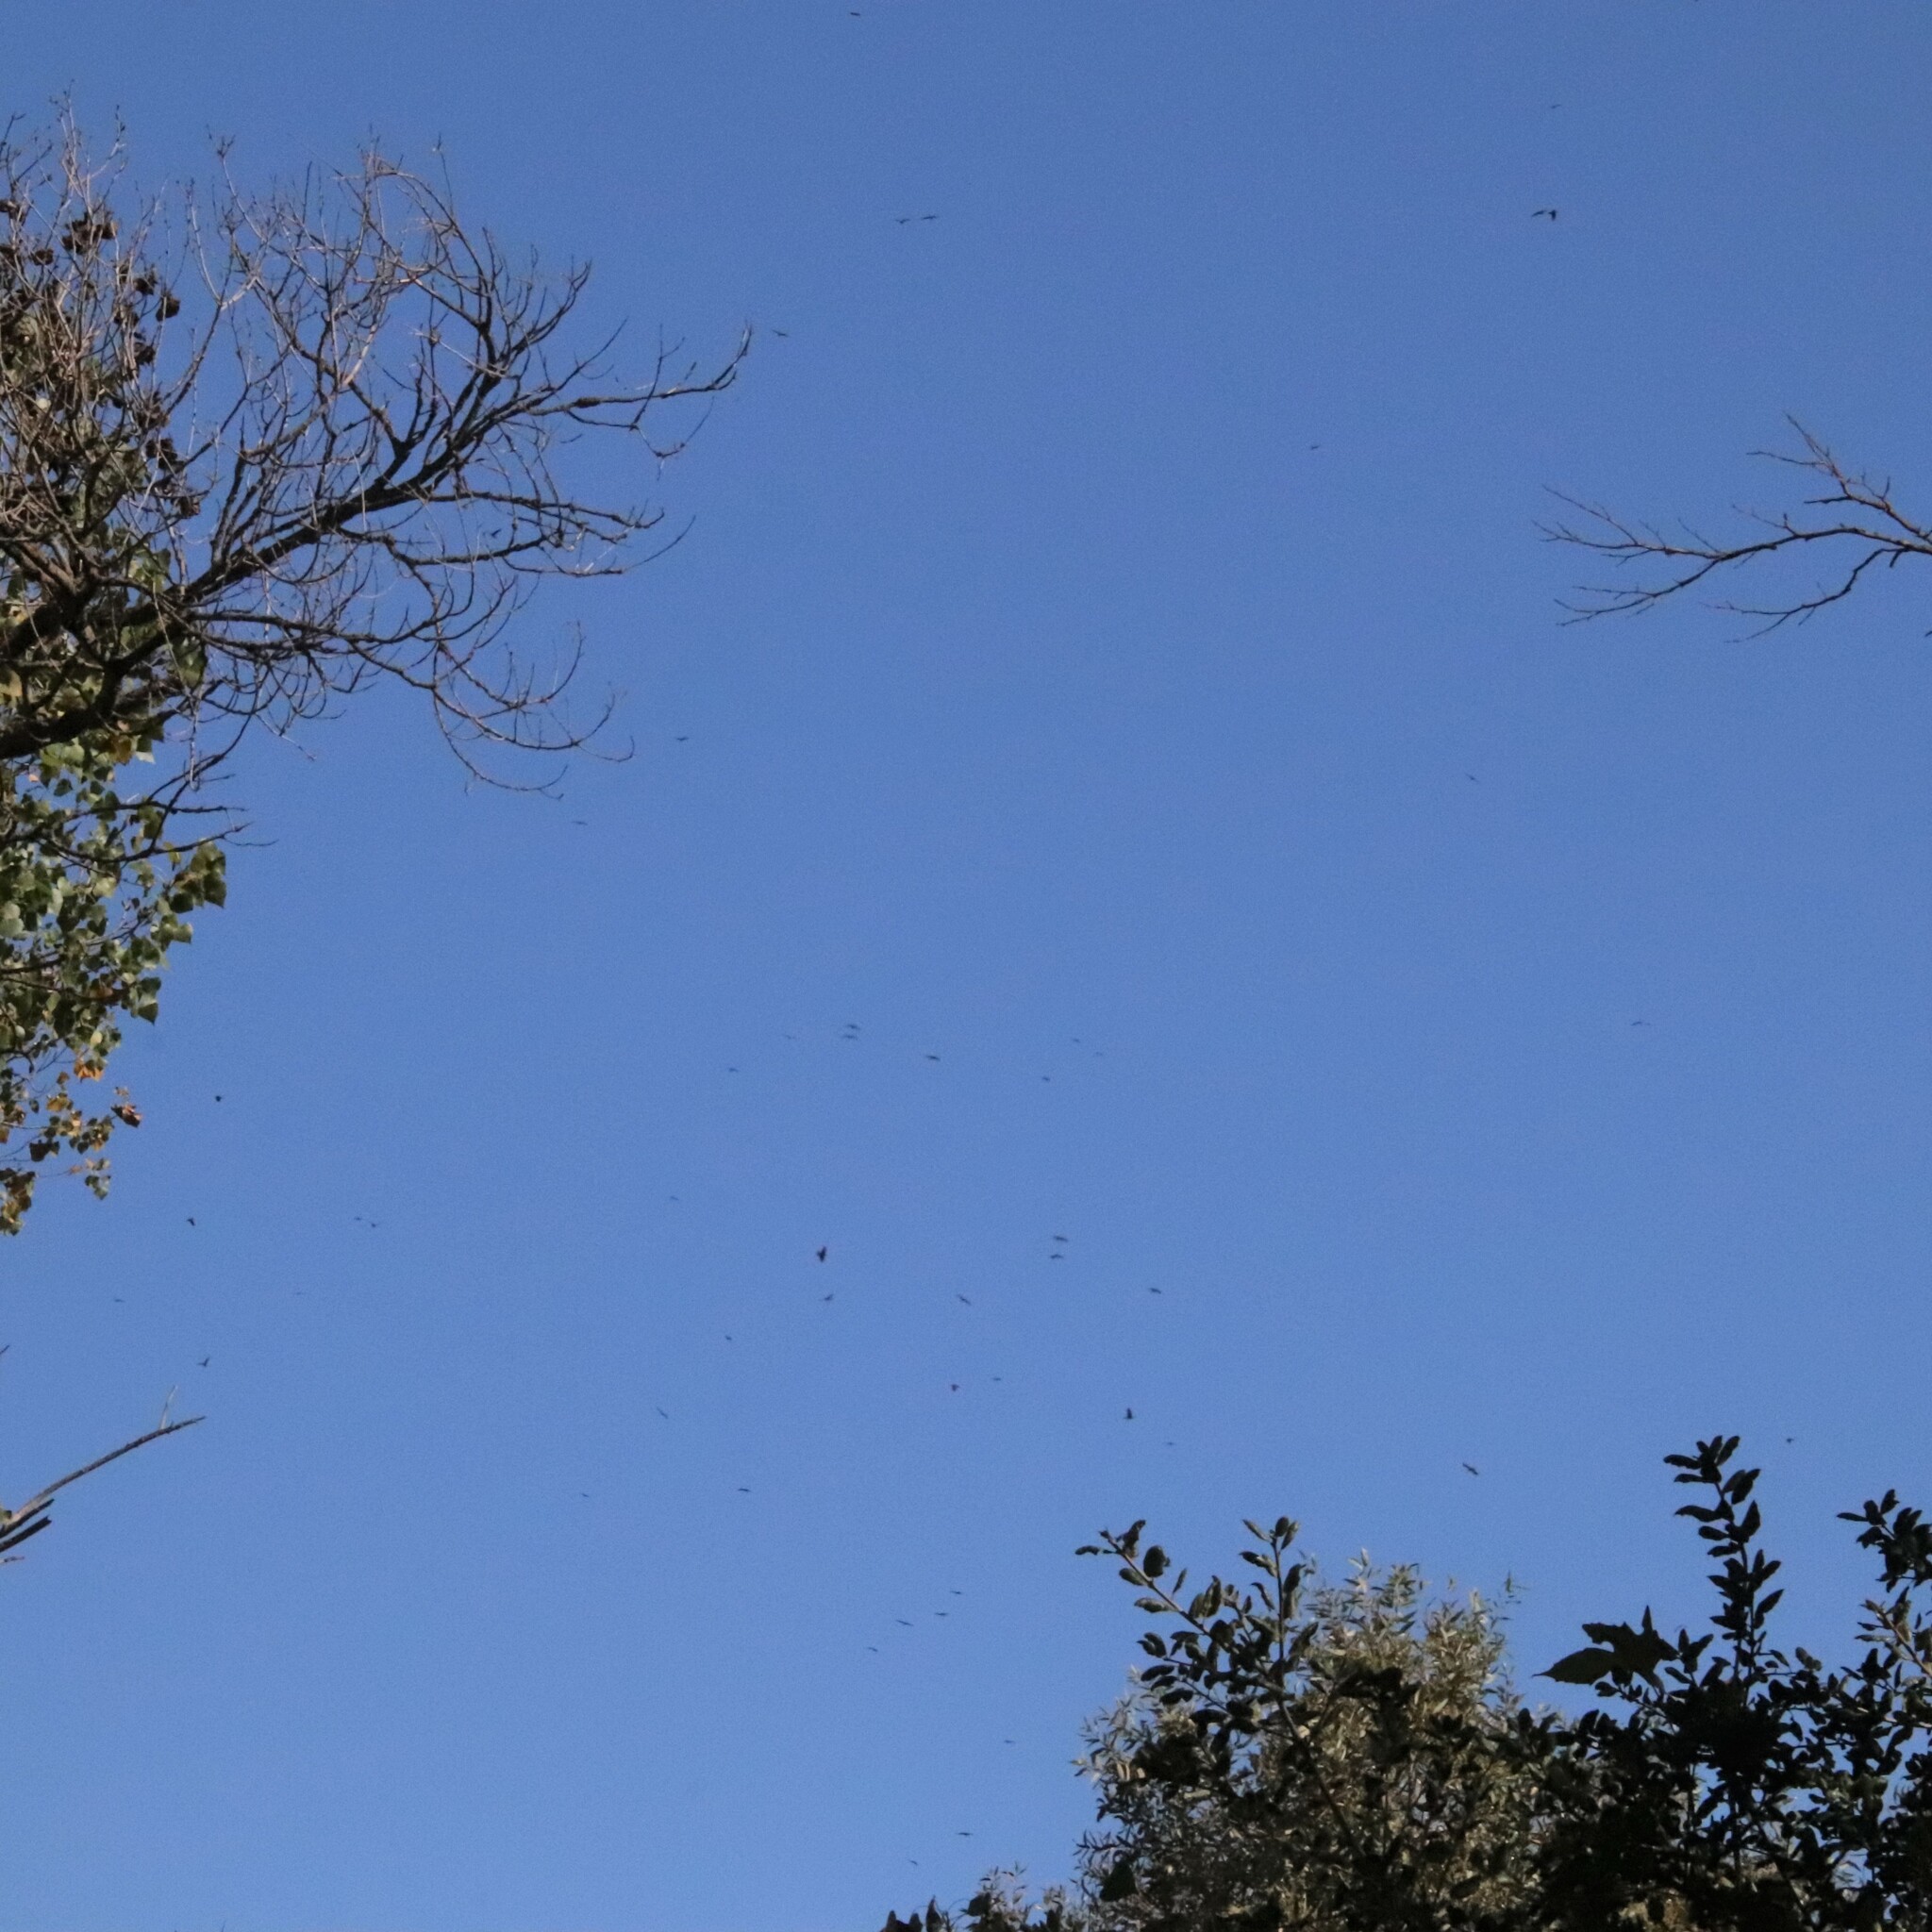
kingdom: Animalia
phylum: Chordata
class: Aves
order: Passeriformes
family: Corvidae
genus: Corvus
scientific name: Corvus corax
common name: Common raven
